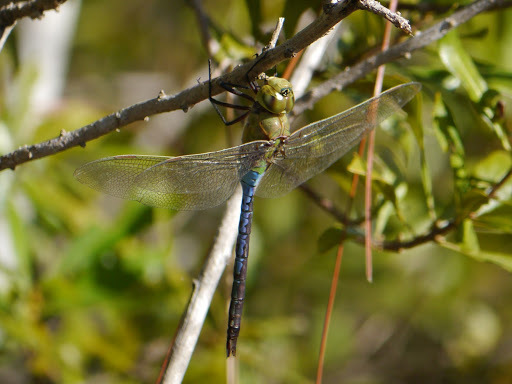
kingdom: Animalia
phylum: Arthropoda
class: Insecta
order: Odonata
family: Aeshnidae
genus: Anax
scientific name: Anax junius
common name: Common green darner
